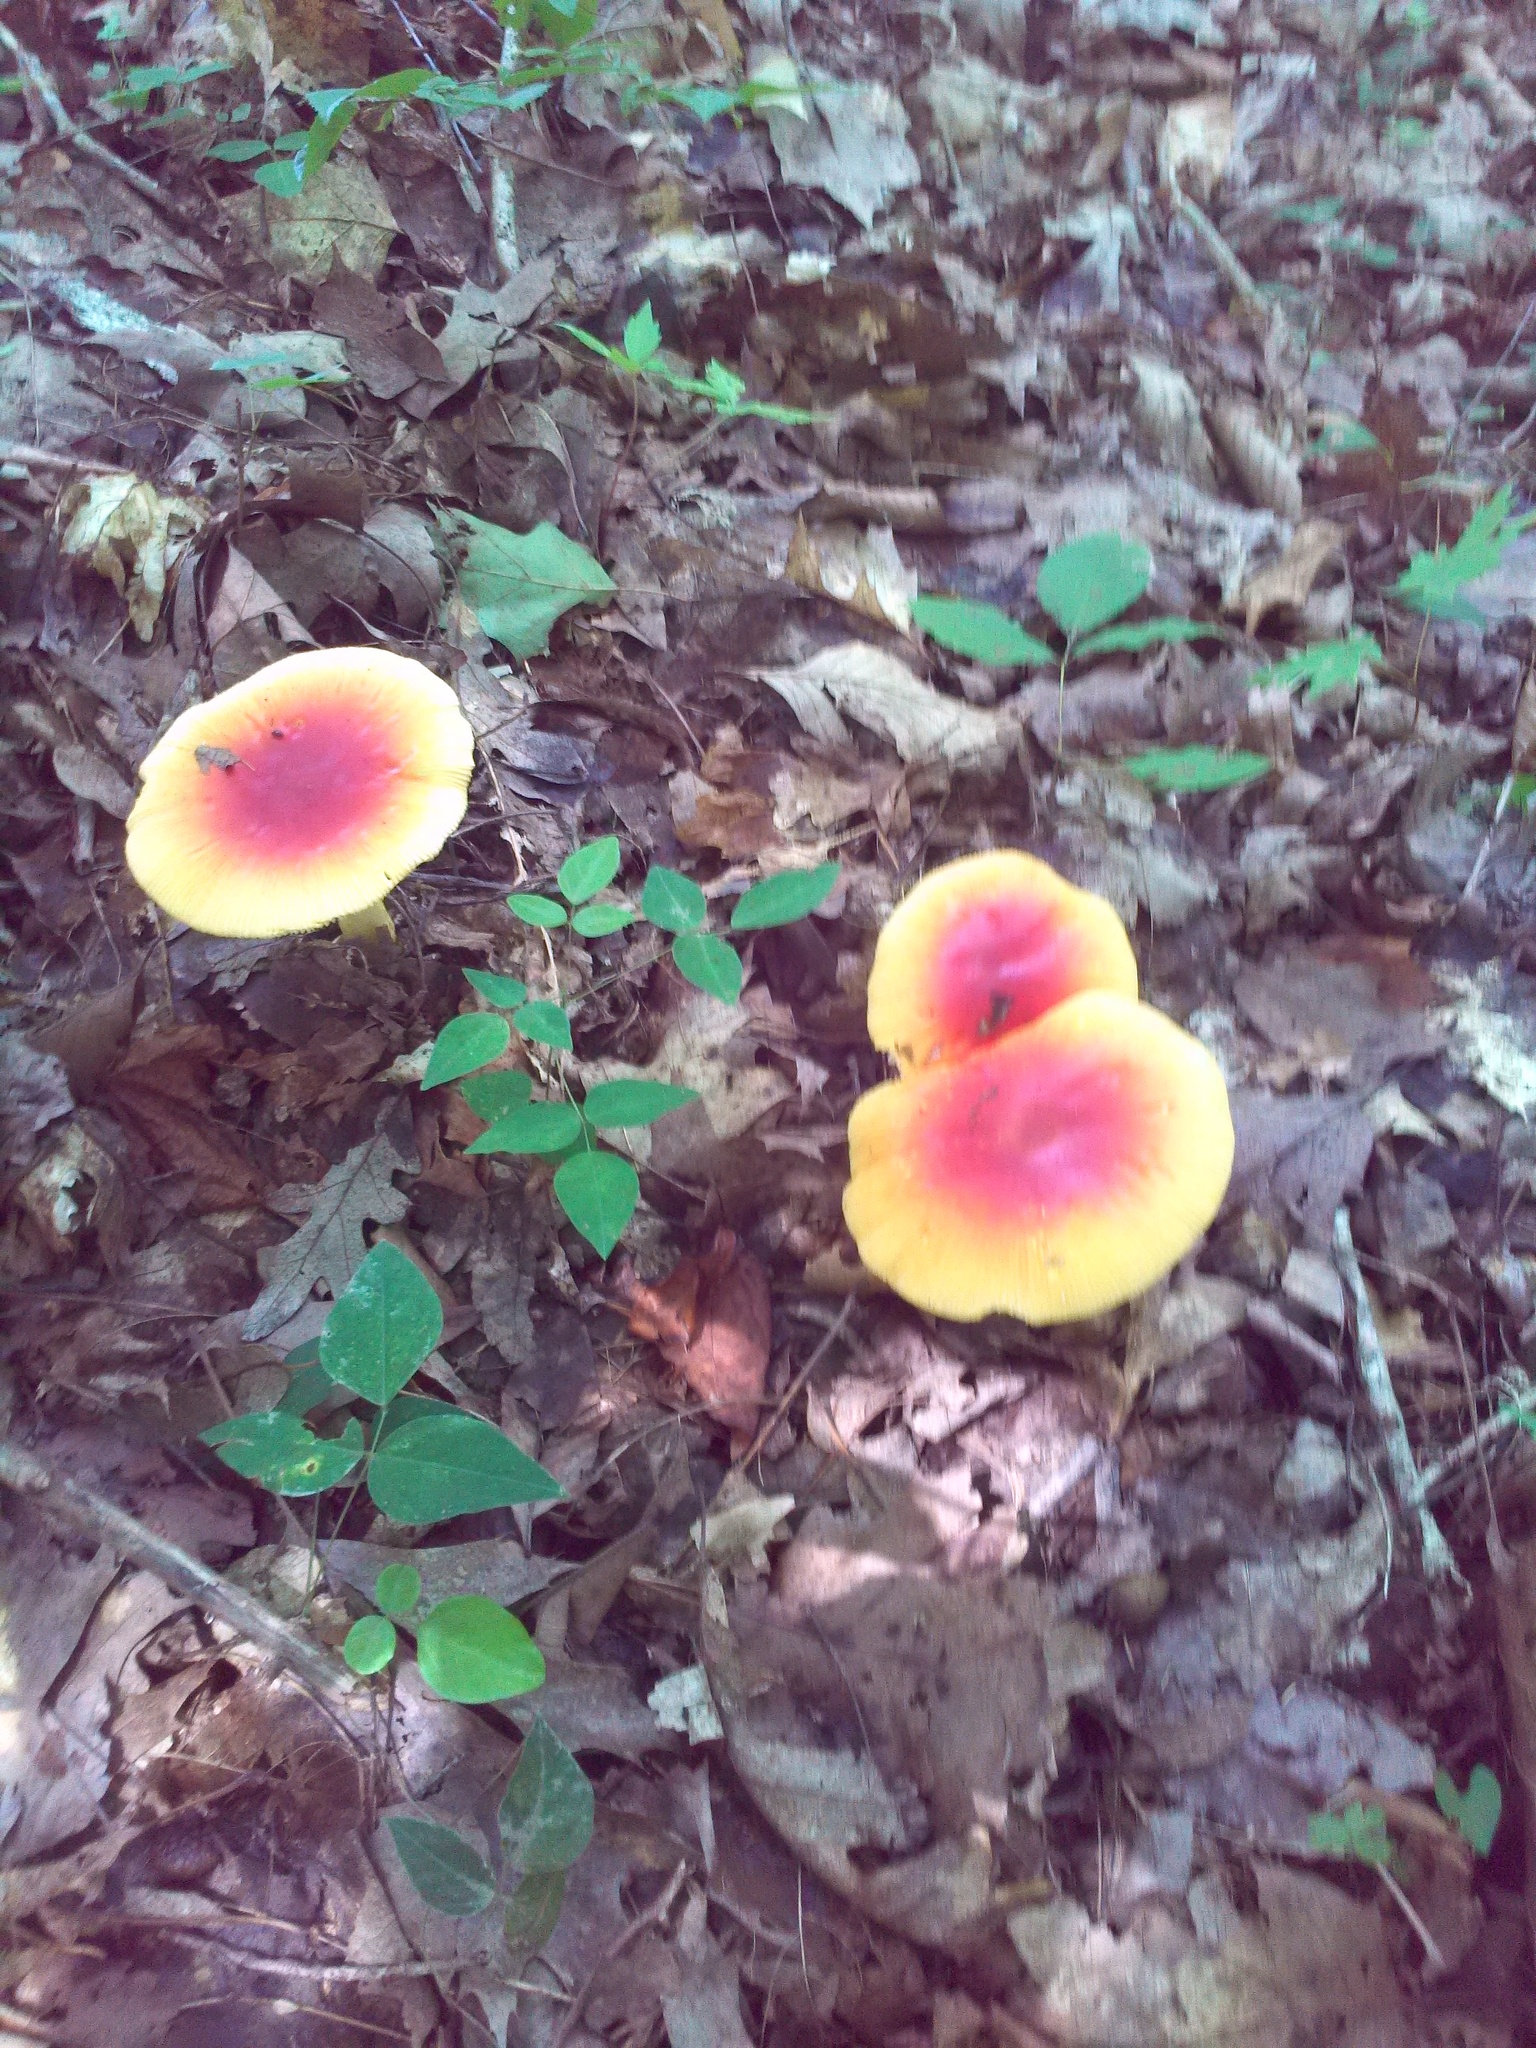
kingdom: Fungi
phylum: Basidiomycota
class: Agaricomycetes
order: Agaricales
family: Amanitaceae
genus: Amanita
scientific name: Amanita jacksonii
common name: Jackson's slender caesar
